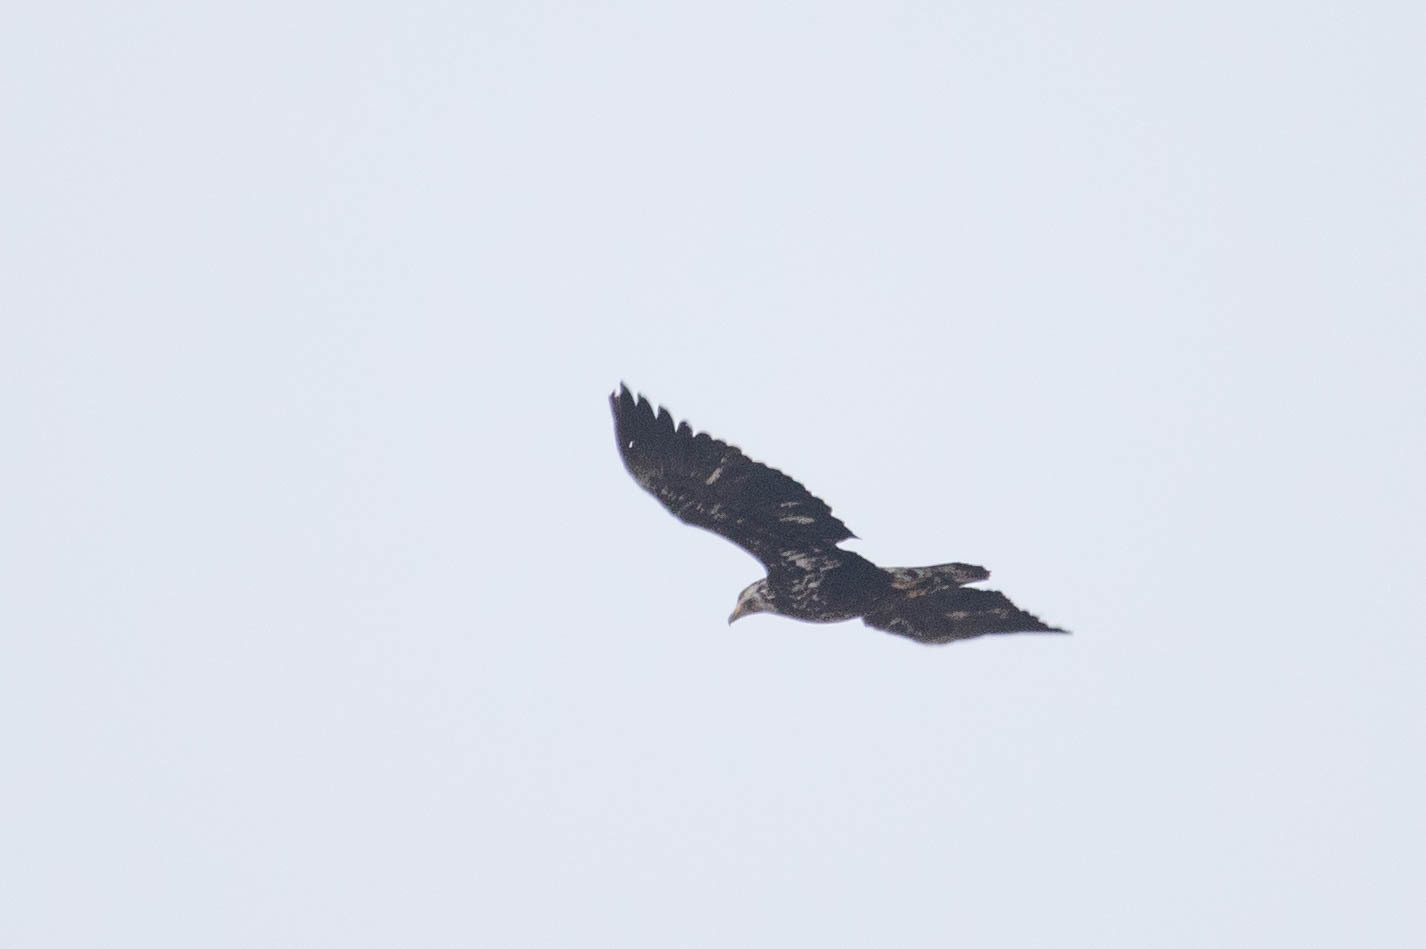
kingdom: Animalia
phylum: Chordata
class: Aves
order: Accipitriformes
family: Accipitridae
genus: Haliaeetus
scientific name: Haliaeetus leucocephalus
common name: Bald eagle
